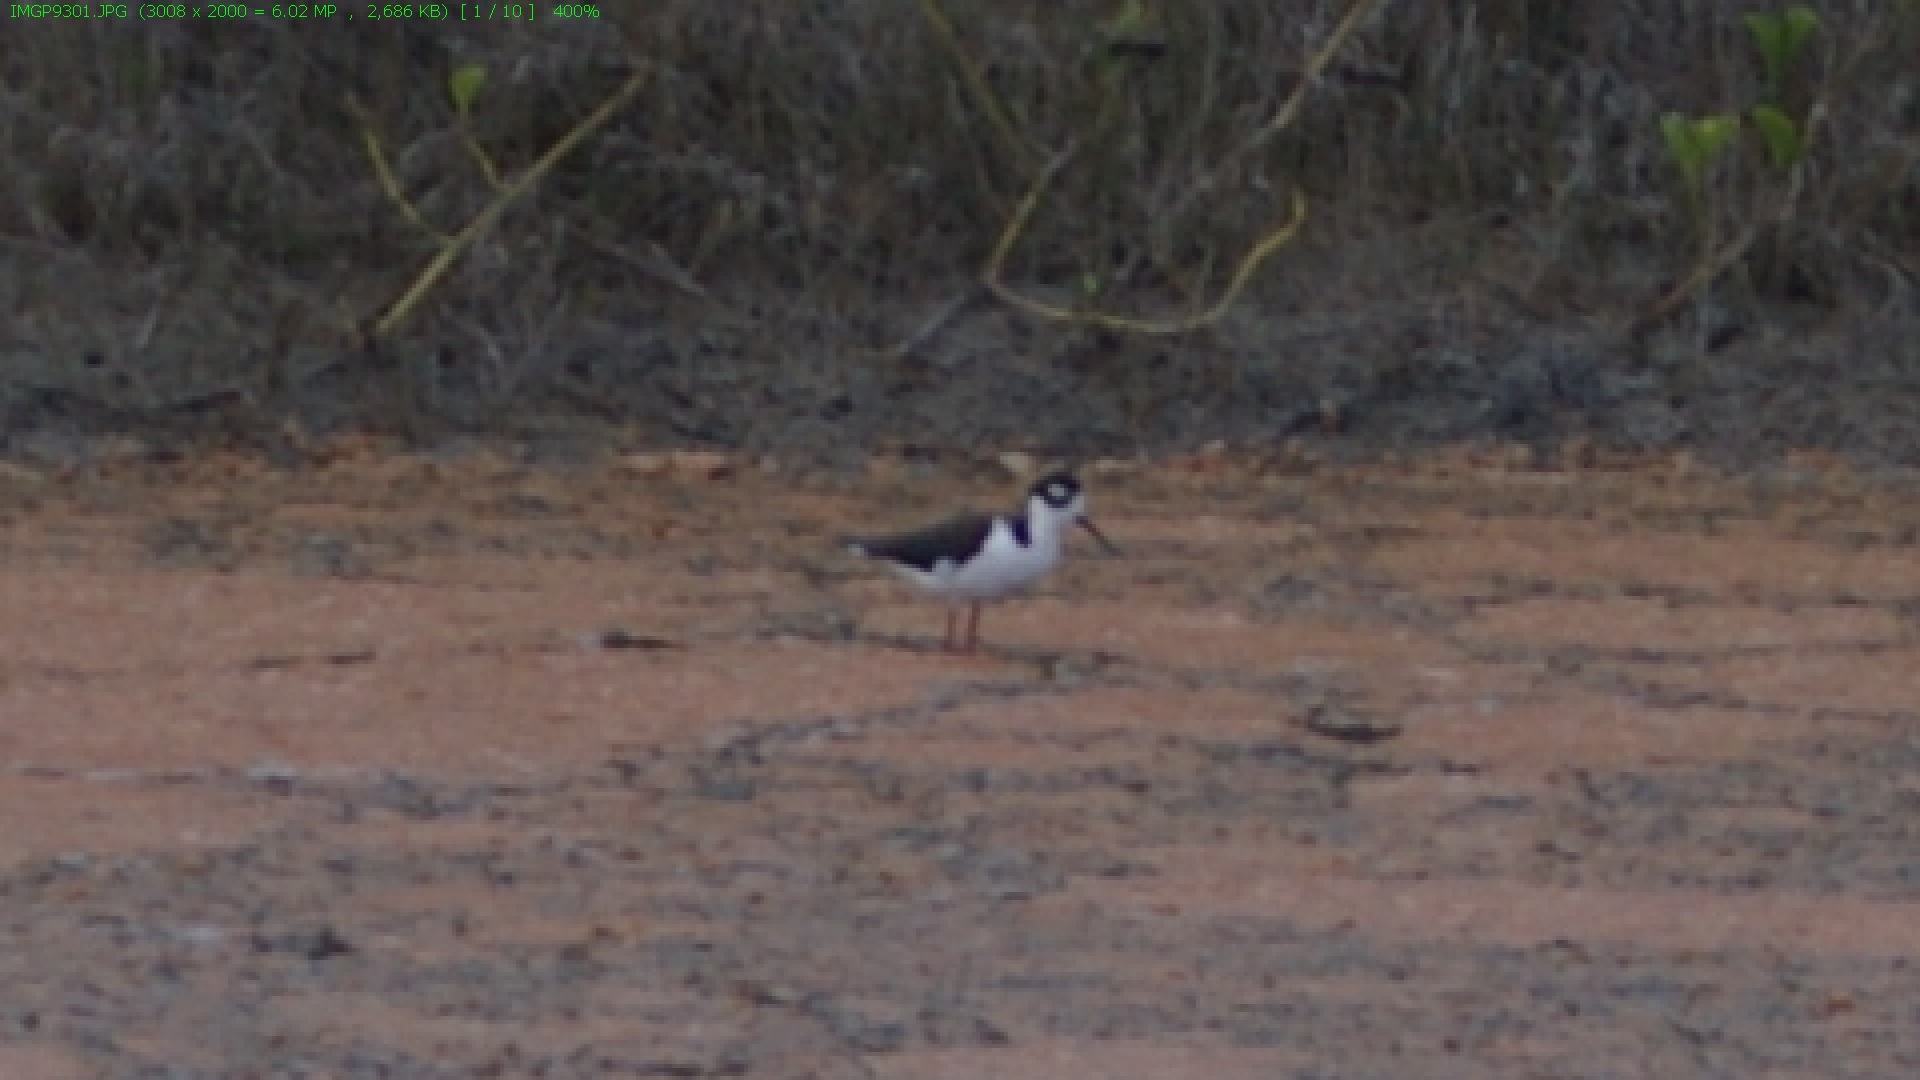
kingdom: Animalia
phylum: Chordata
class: Aves
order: Charadriiformes
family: Recurvirostridae
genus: Himantopus
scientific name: Himantopus mexicanus
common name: Black-necked stilt
